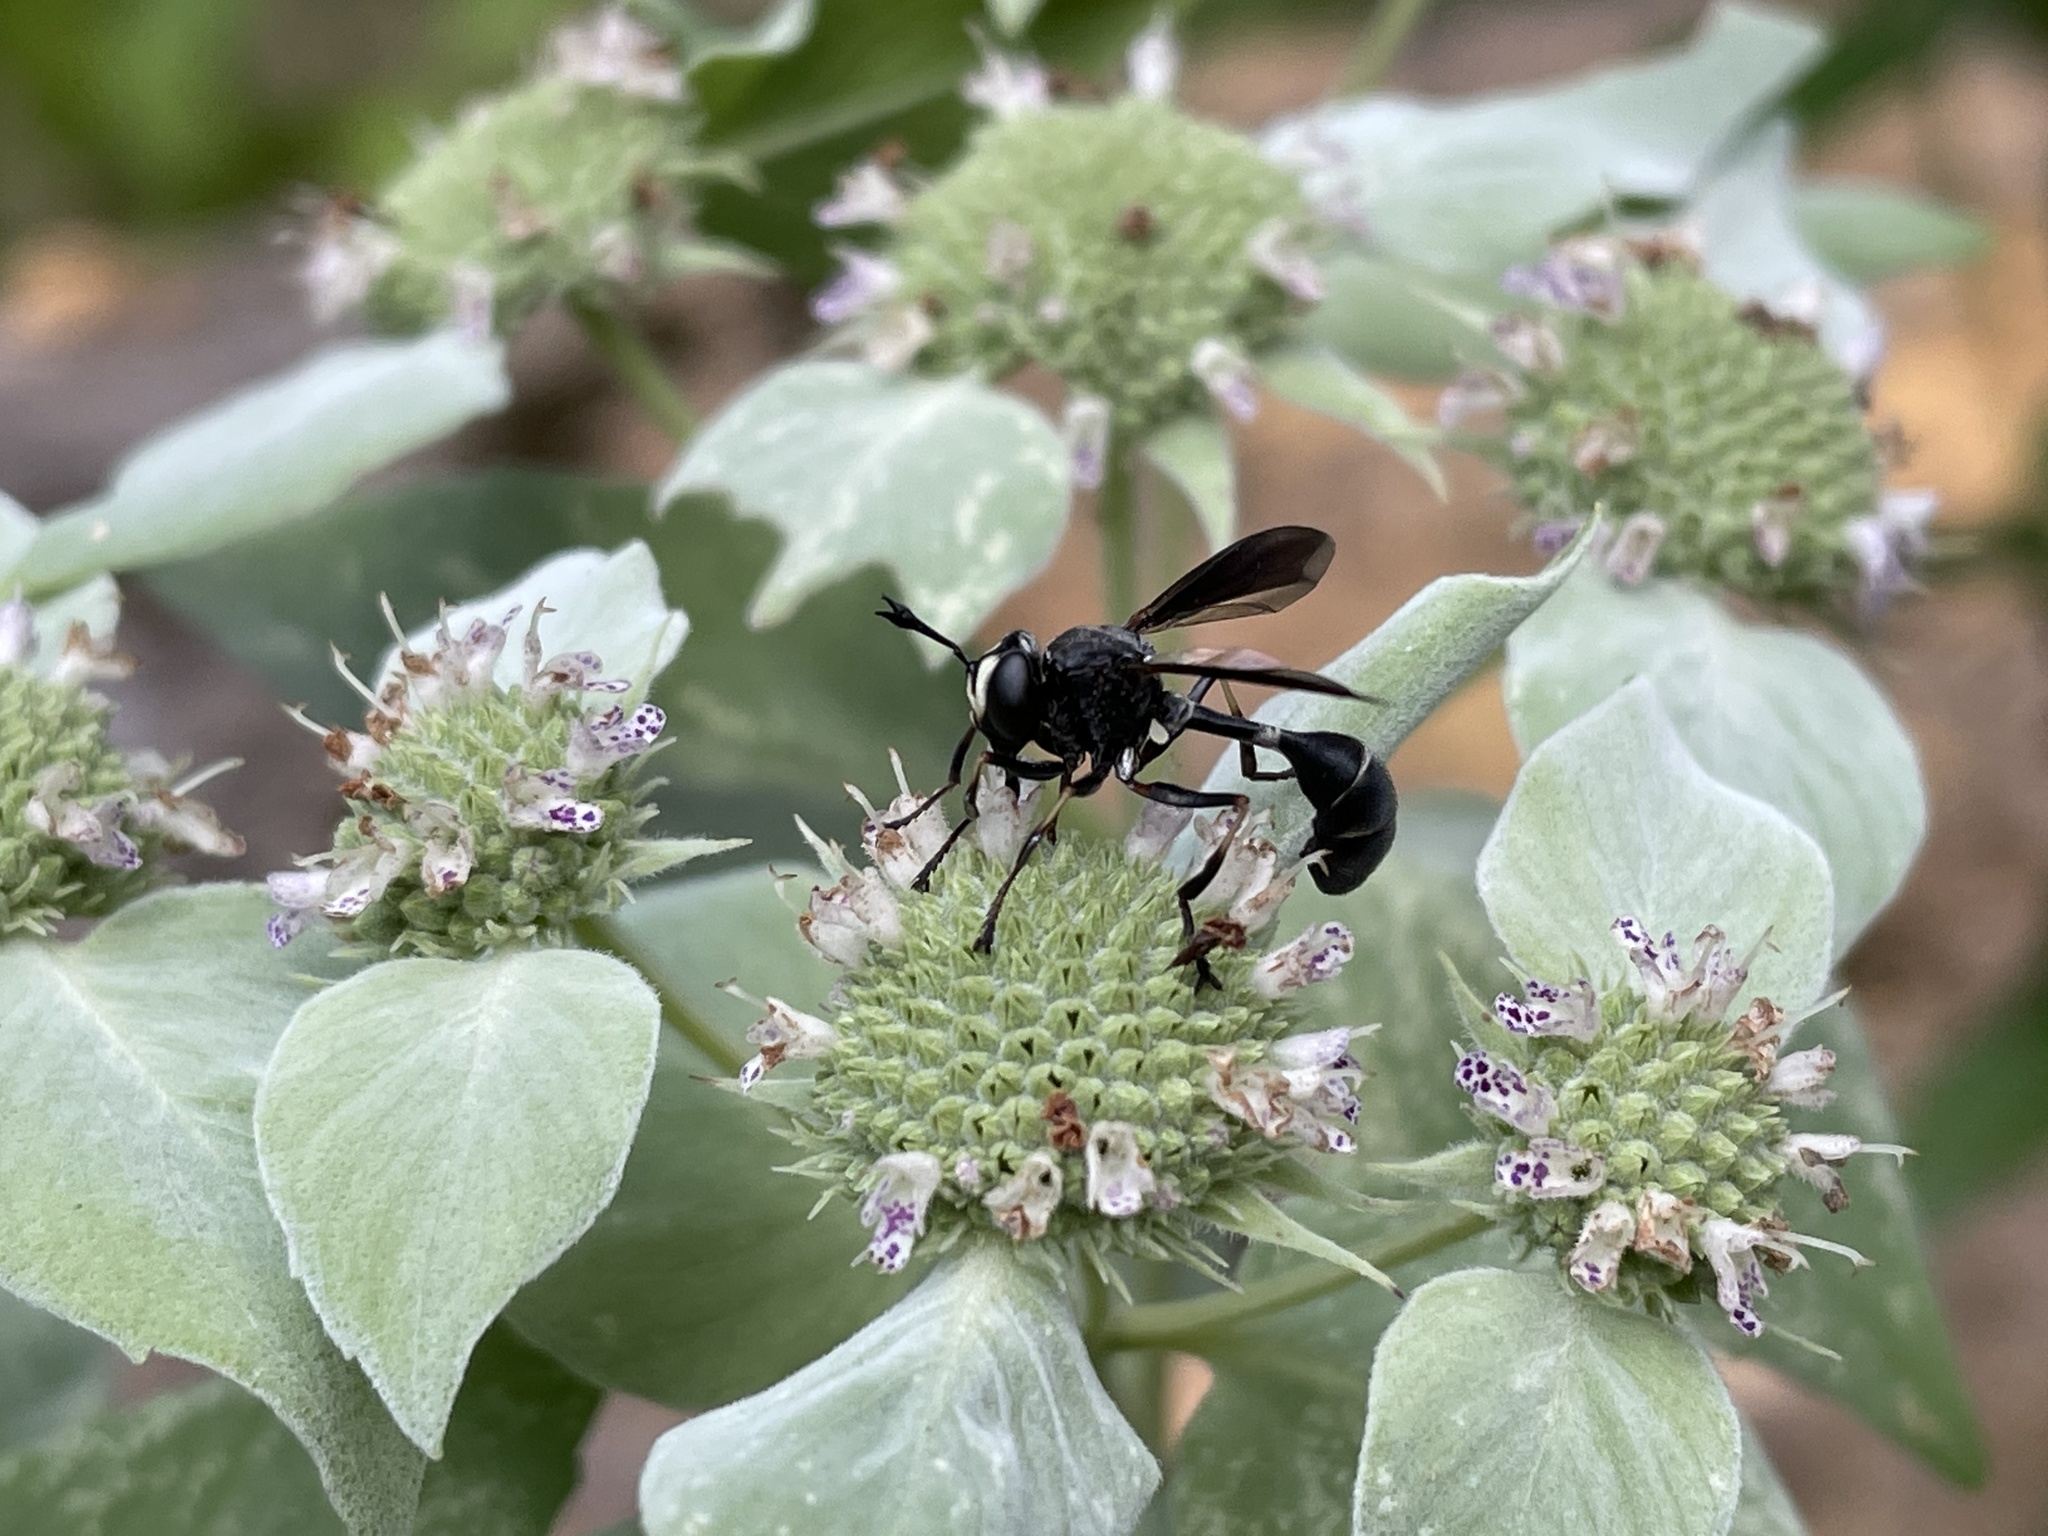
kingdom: Animalia
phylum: Arthropoda
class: Insecta
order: Diptera
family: Conopidae
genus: Physocephala
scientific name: Physocephala tibialis
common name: Common eastern physocephala
